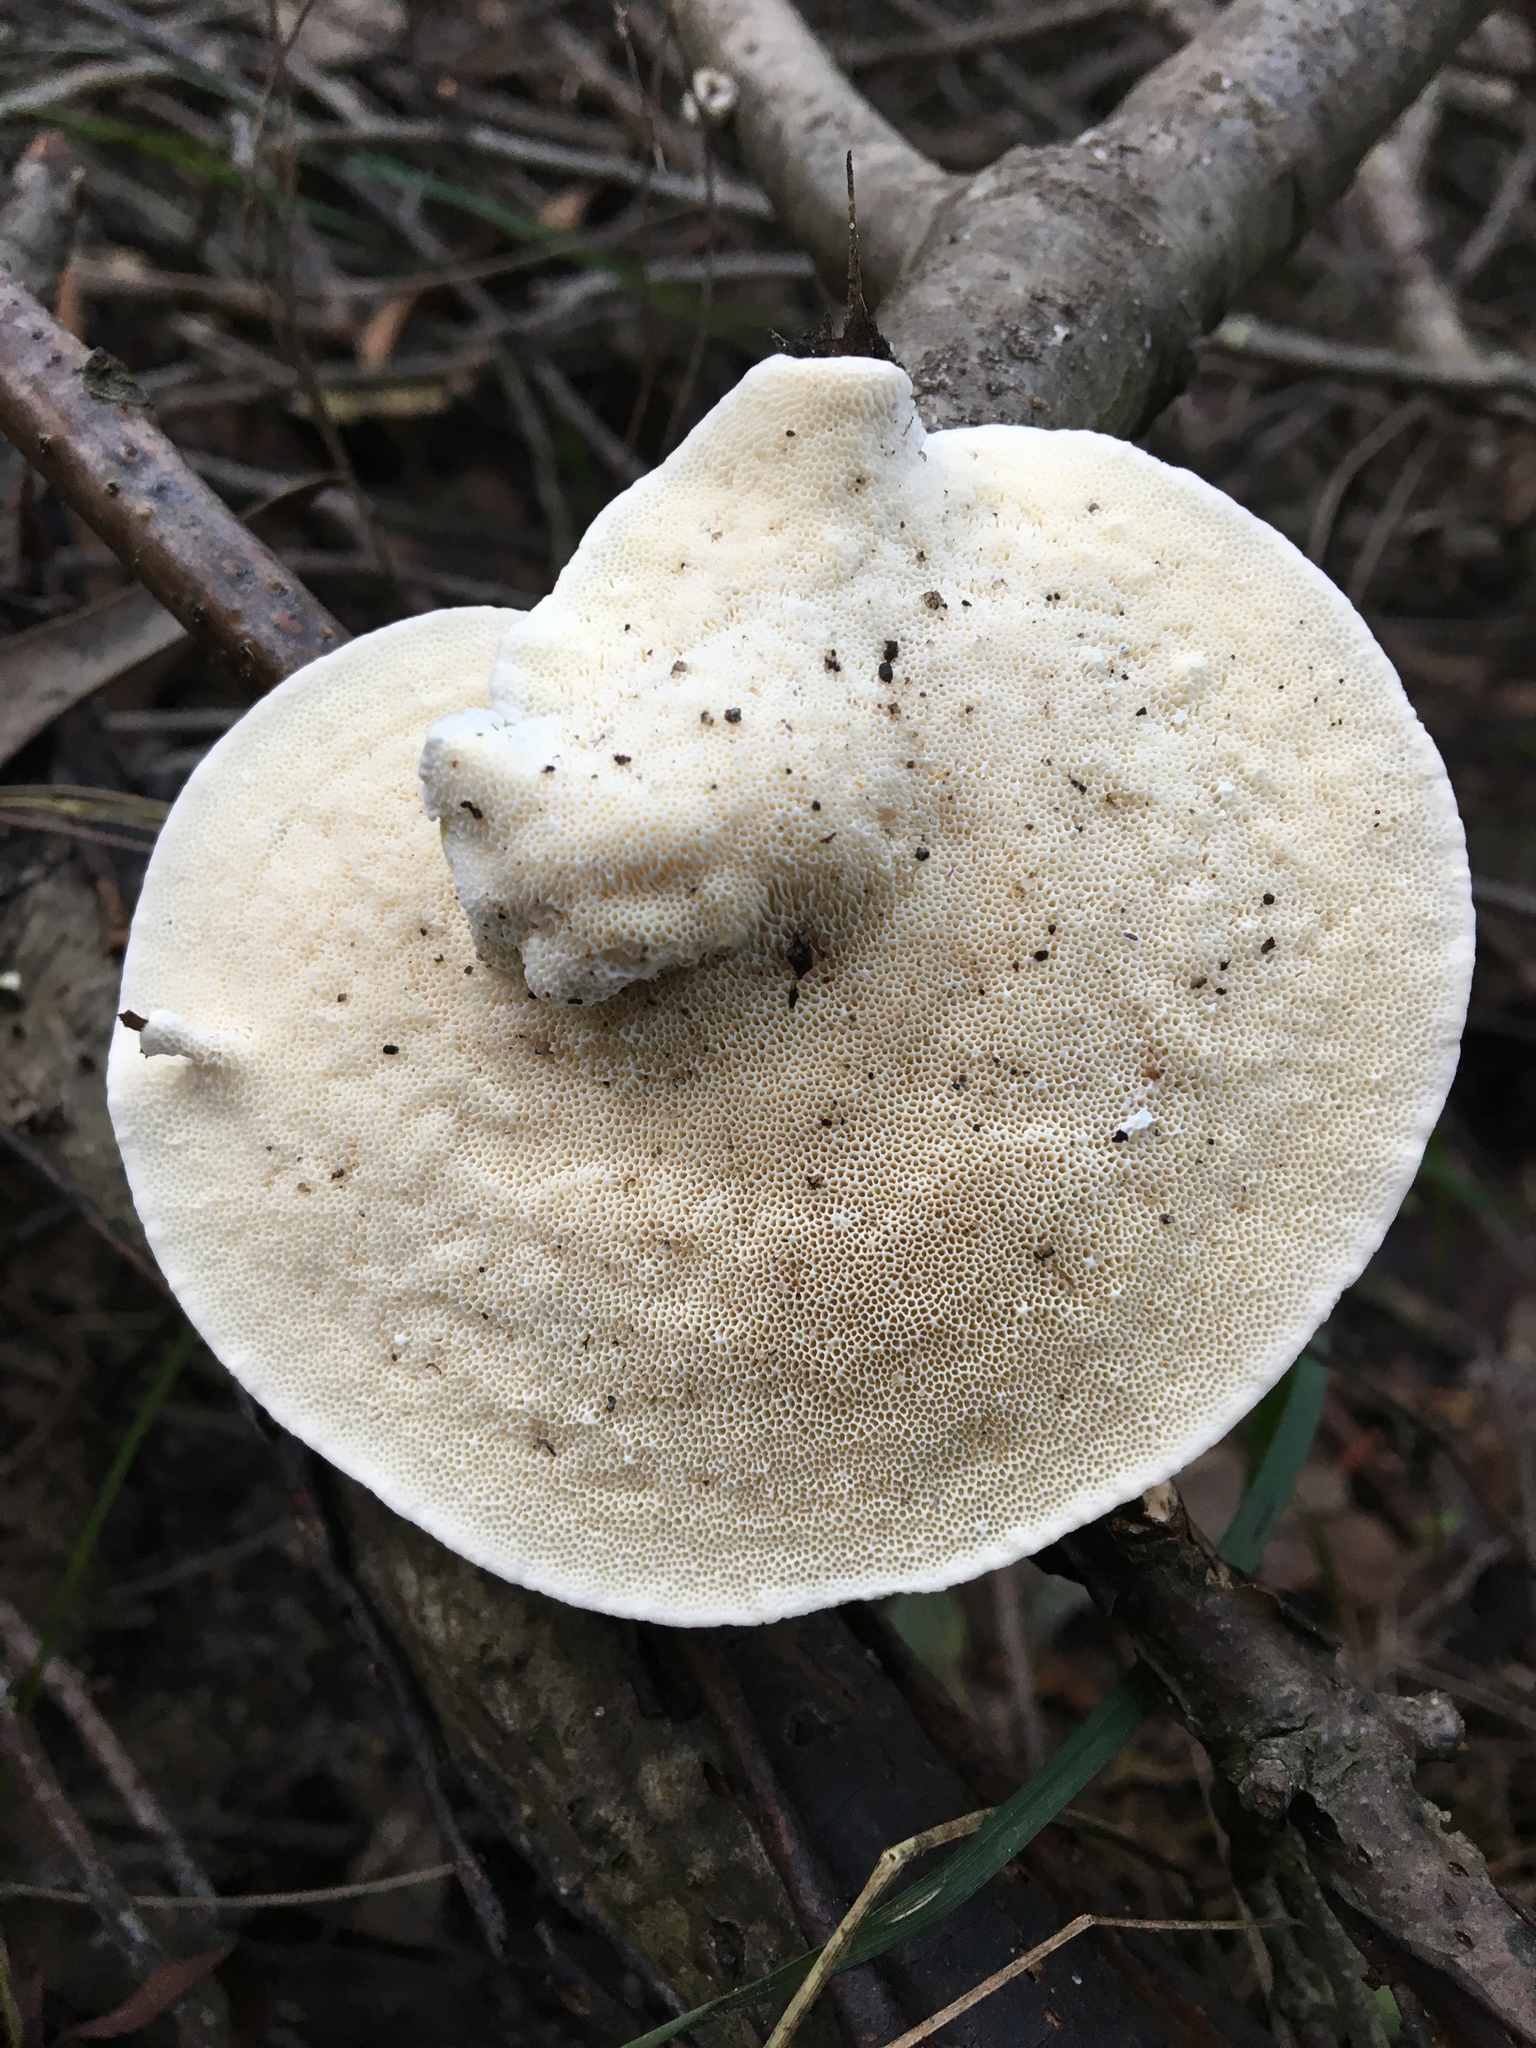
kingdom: Fungi
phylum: Basidiomycota
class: Agaricomycetes
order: Polyporales
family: Polyporaceae
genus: Trametes
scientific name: Trametes hirsuta
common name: Hairy bracket
